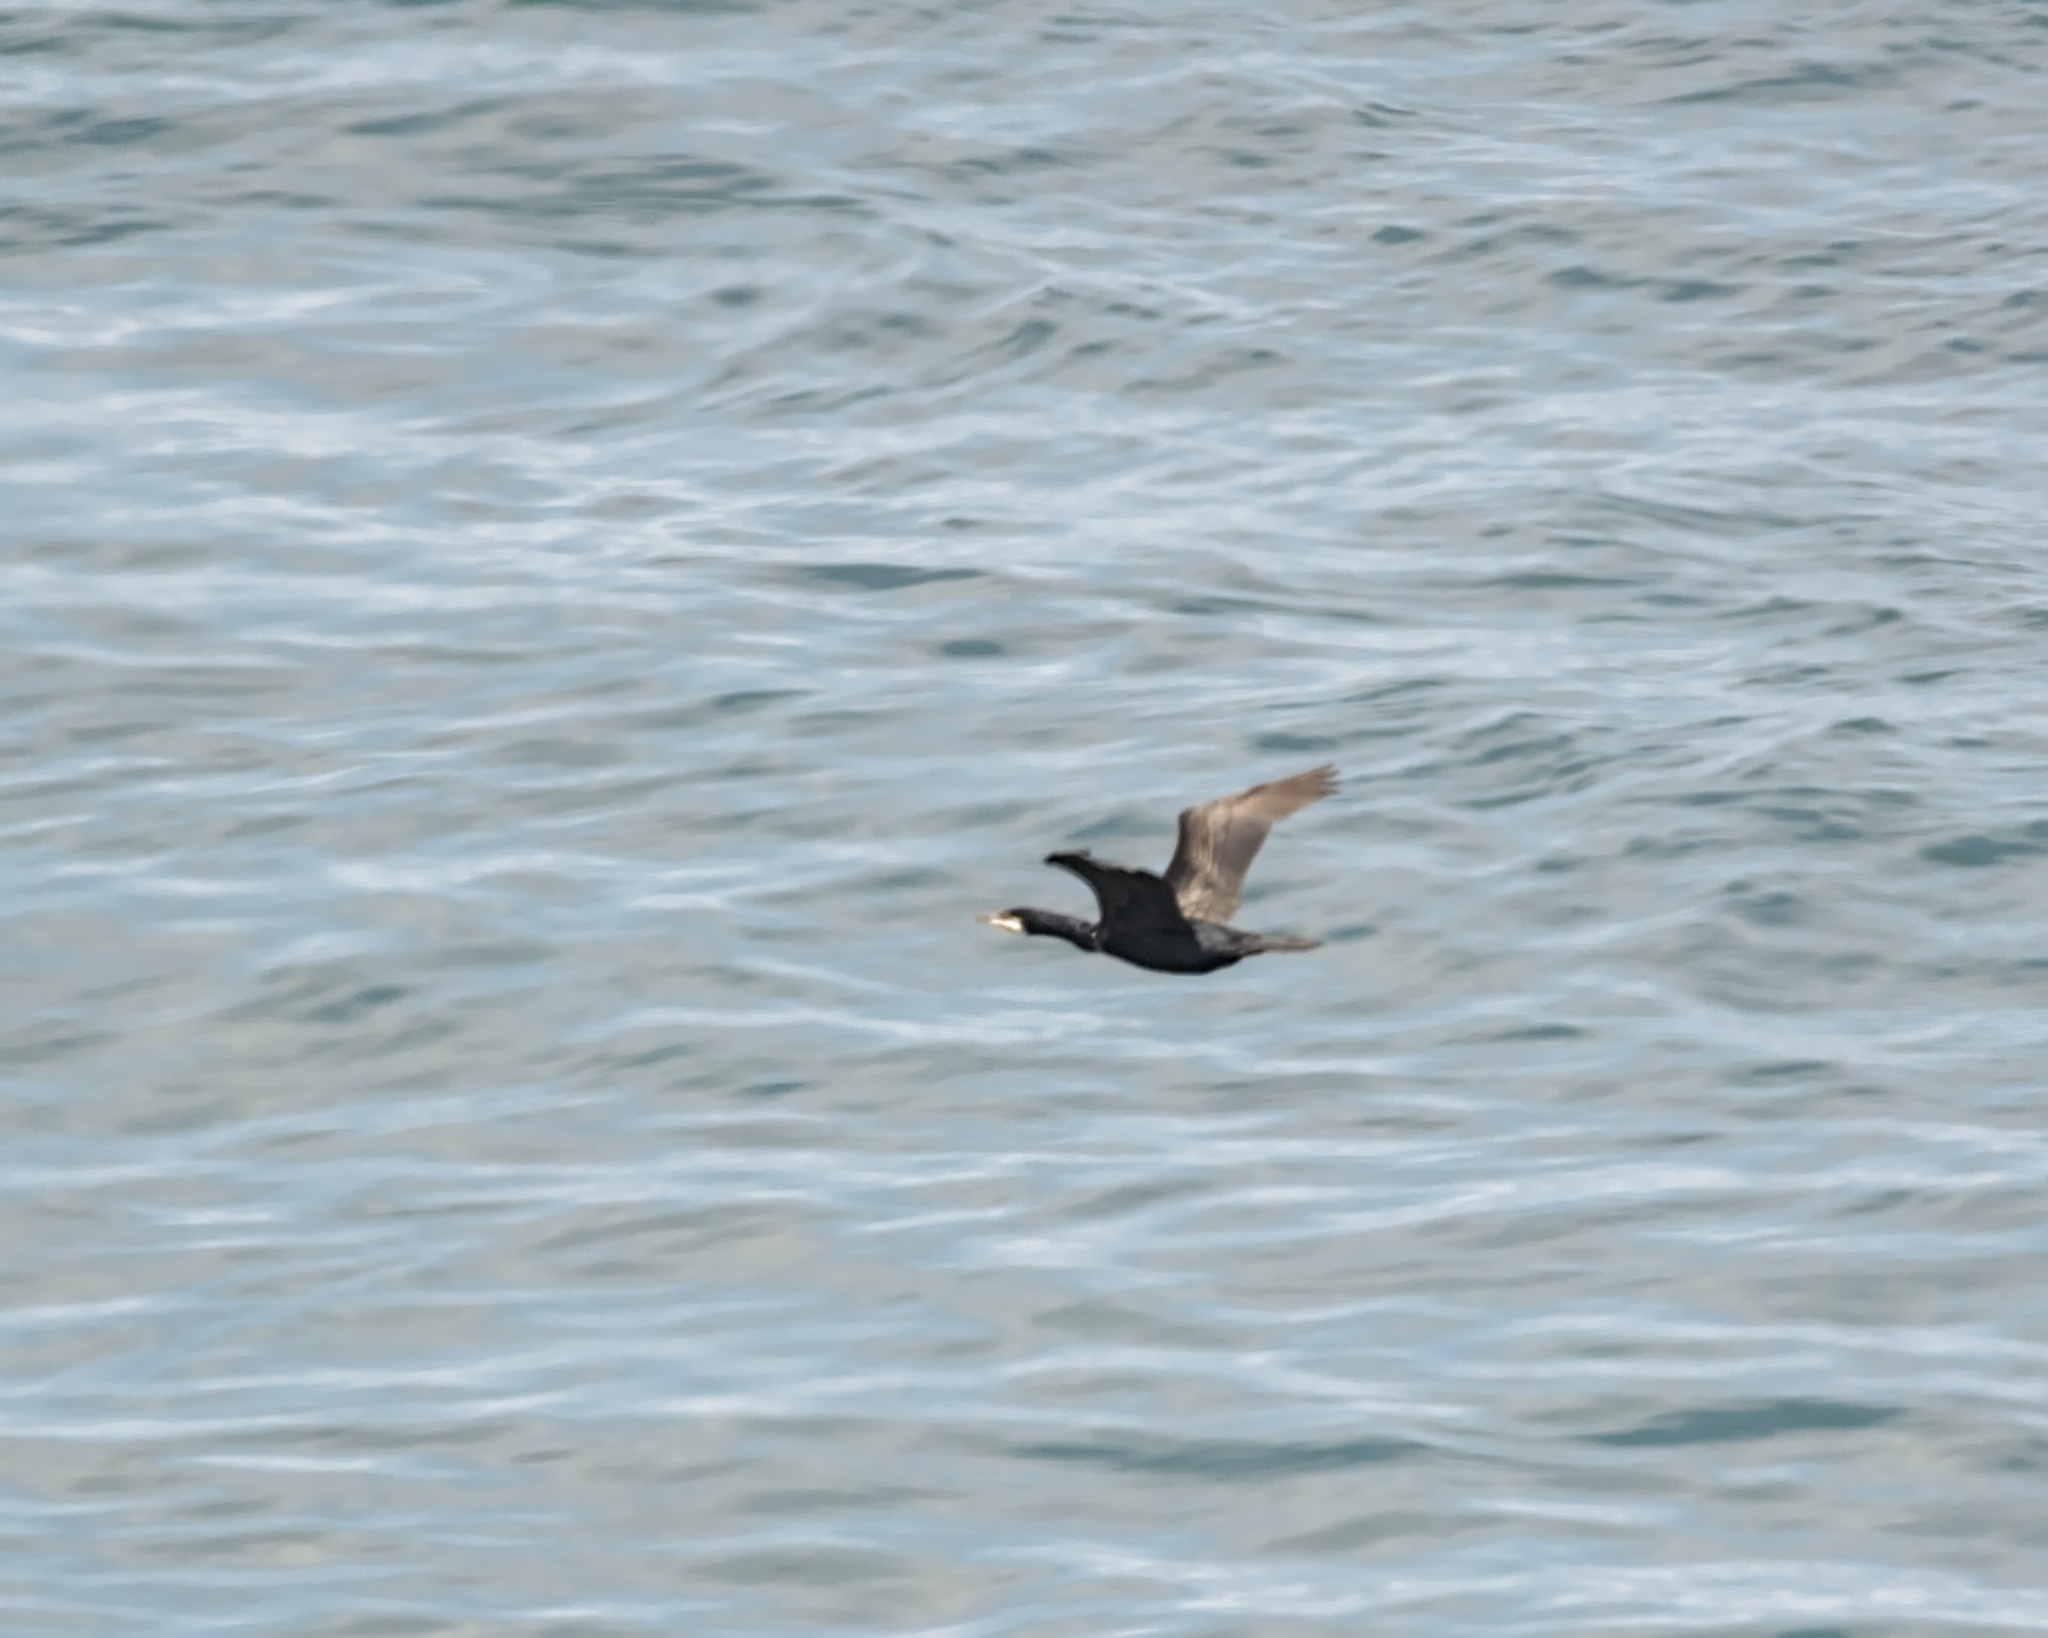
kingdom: Animalia
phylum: Chordata
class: Aves
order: Suliformes
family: Phalacrocoracidae
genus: Phalacrocorax
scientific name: Phalacrocorax carbo
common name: Great cormorant
